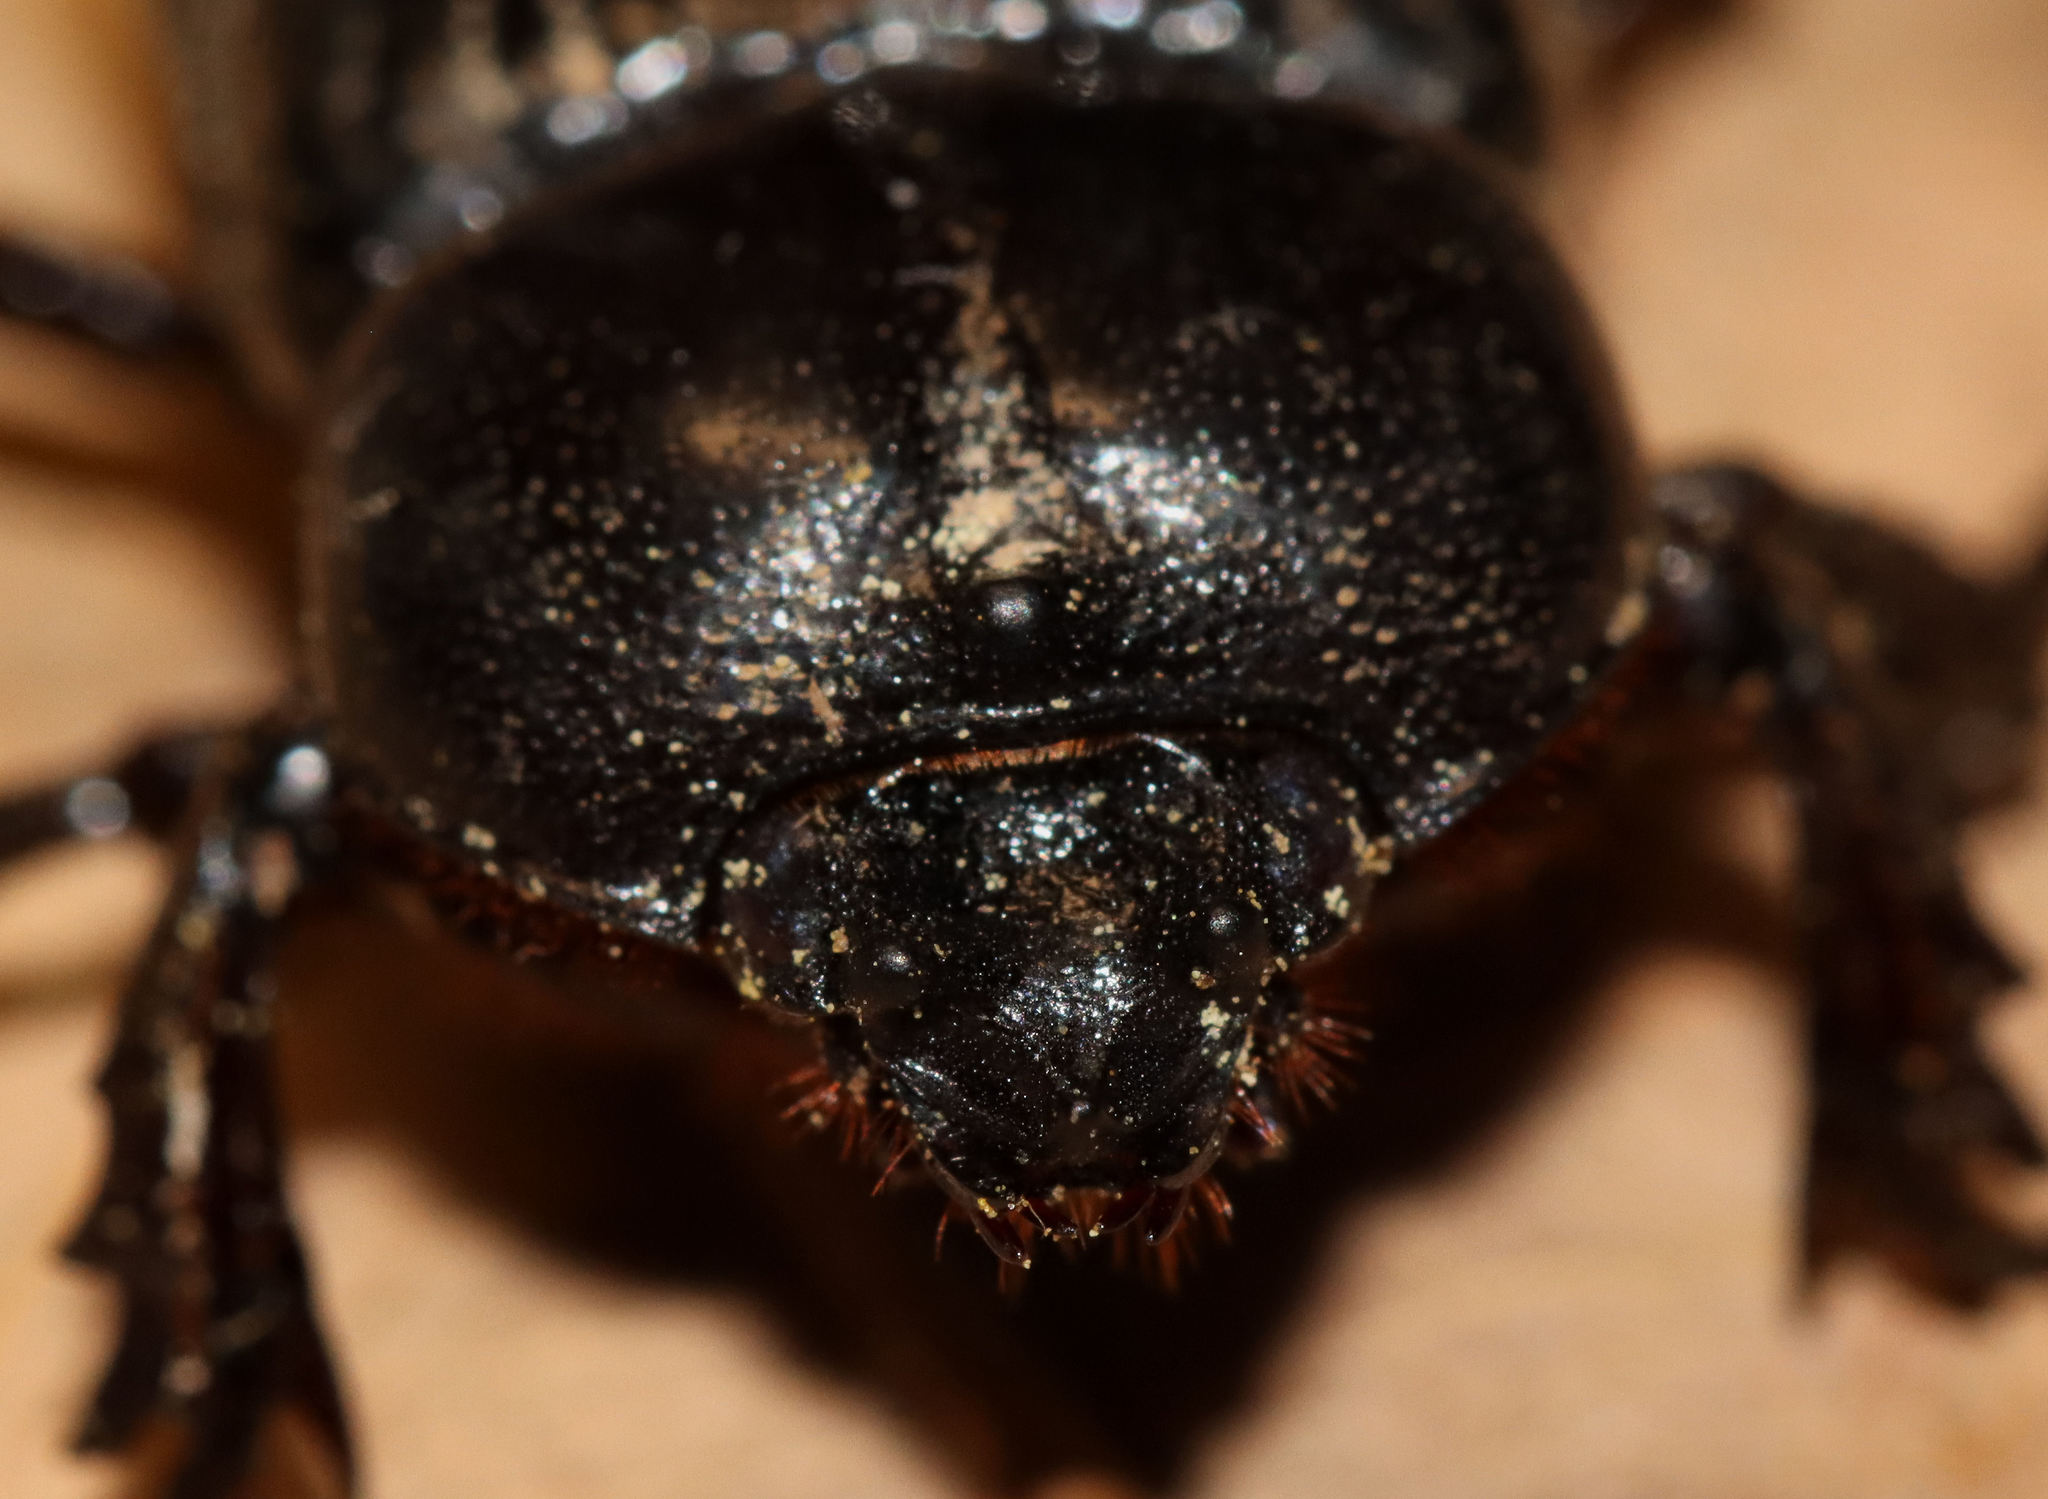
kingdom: Animalia
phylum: Arthropoda
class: Insecta
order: Coleoptera
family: Scarabaeidae
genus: Phileurus
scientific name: Phileurus valgus
